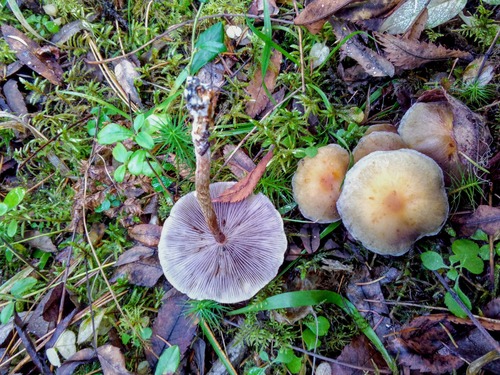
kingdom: Fungi
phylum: Basidiomycota
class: Agaricomycetes
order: Agaricales
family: Strophariaceae
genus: Hypholoma
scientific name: Hypholoma capnoides
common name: Conifer tuft
